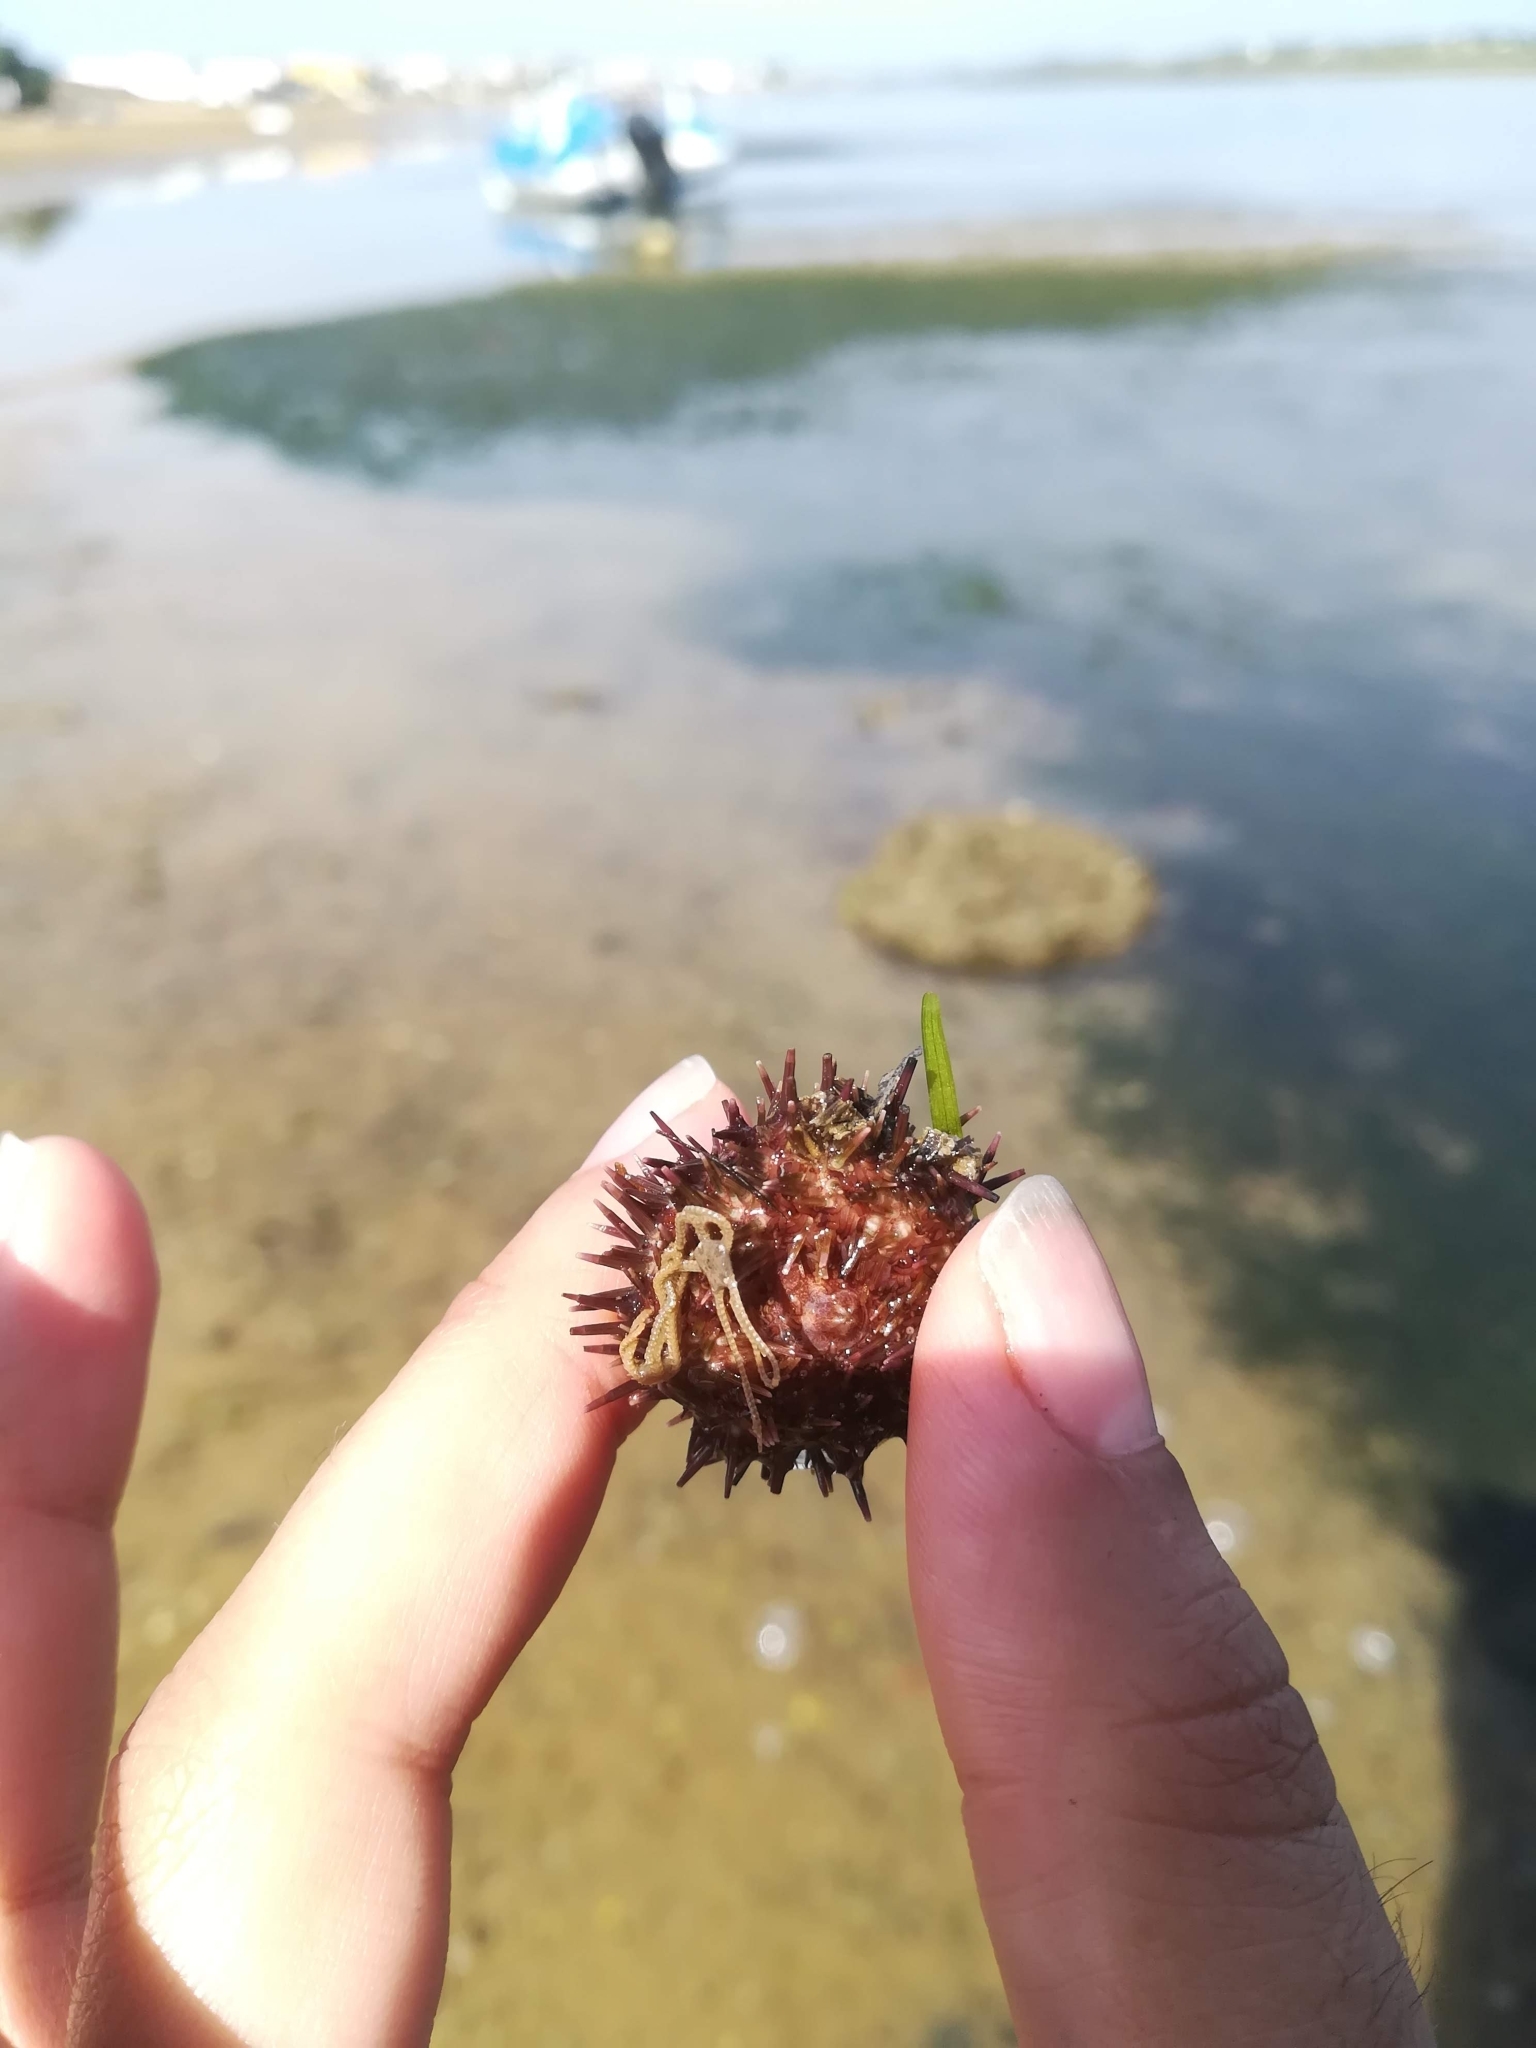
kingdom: Animalia
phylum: Echinodermata
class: Echinoidea
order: Camarodonta
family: Parechinidae
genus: Paracentrotus
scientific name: Paracentrotus lividus
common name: Purple sea urchin
